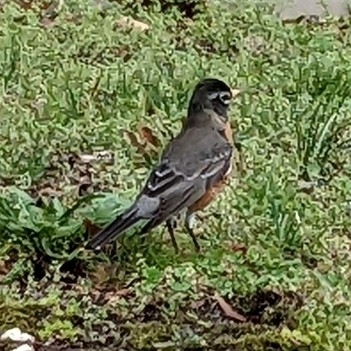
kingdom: Animalia
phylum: Chordata
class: Aves
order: Passeriformes
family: Turdidae
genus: Turdus
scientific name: Turdus migratorius
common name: American robin
